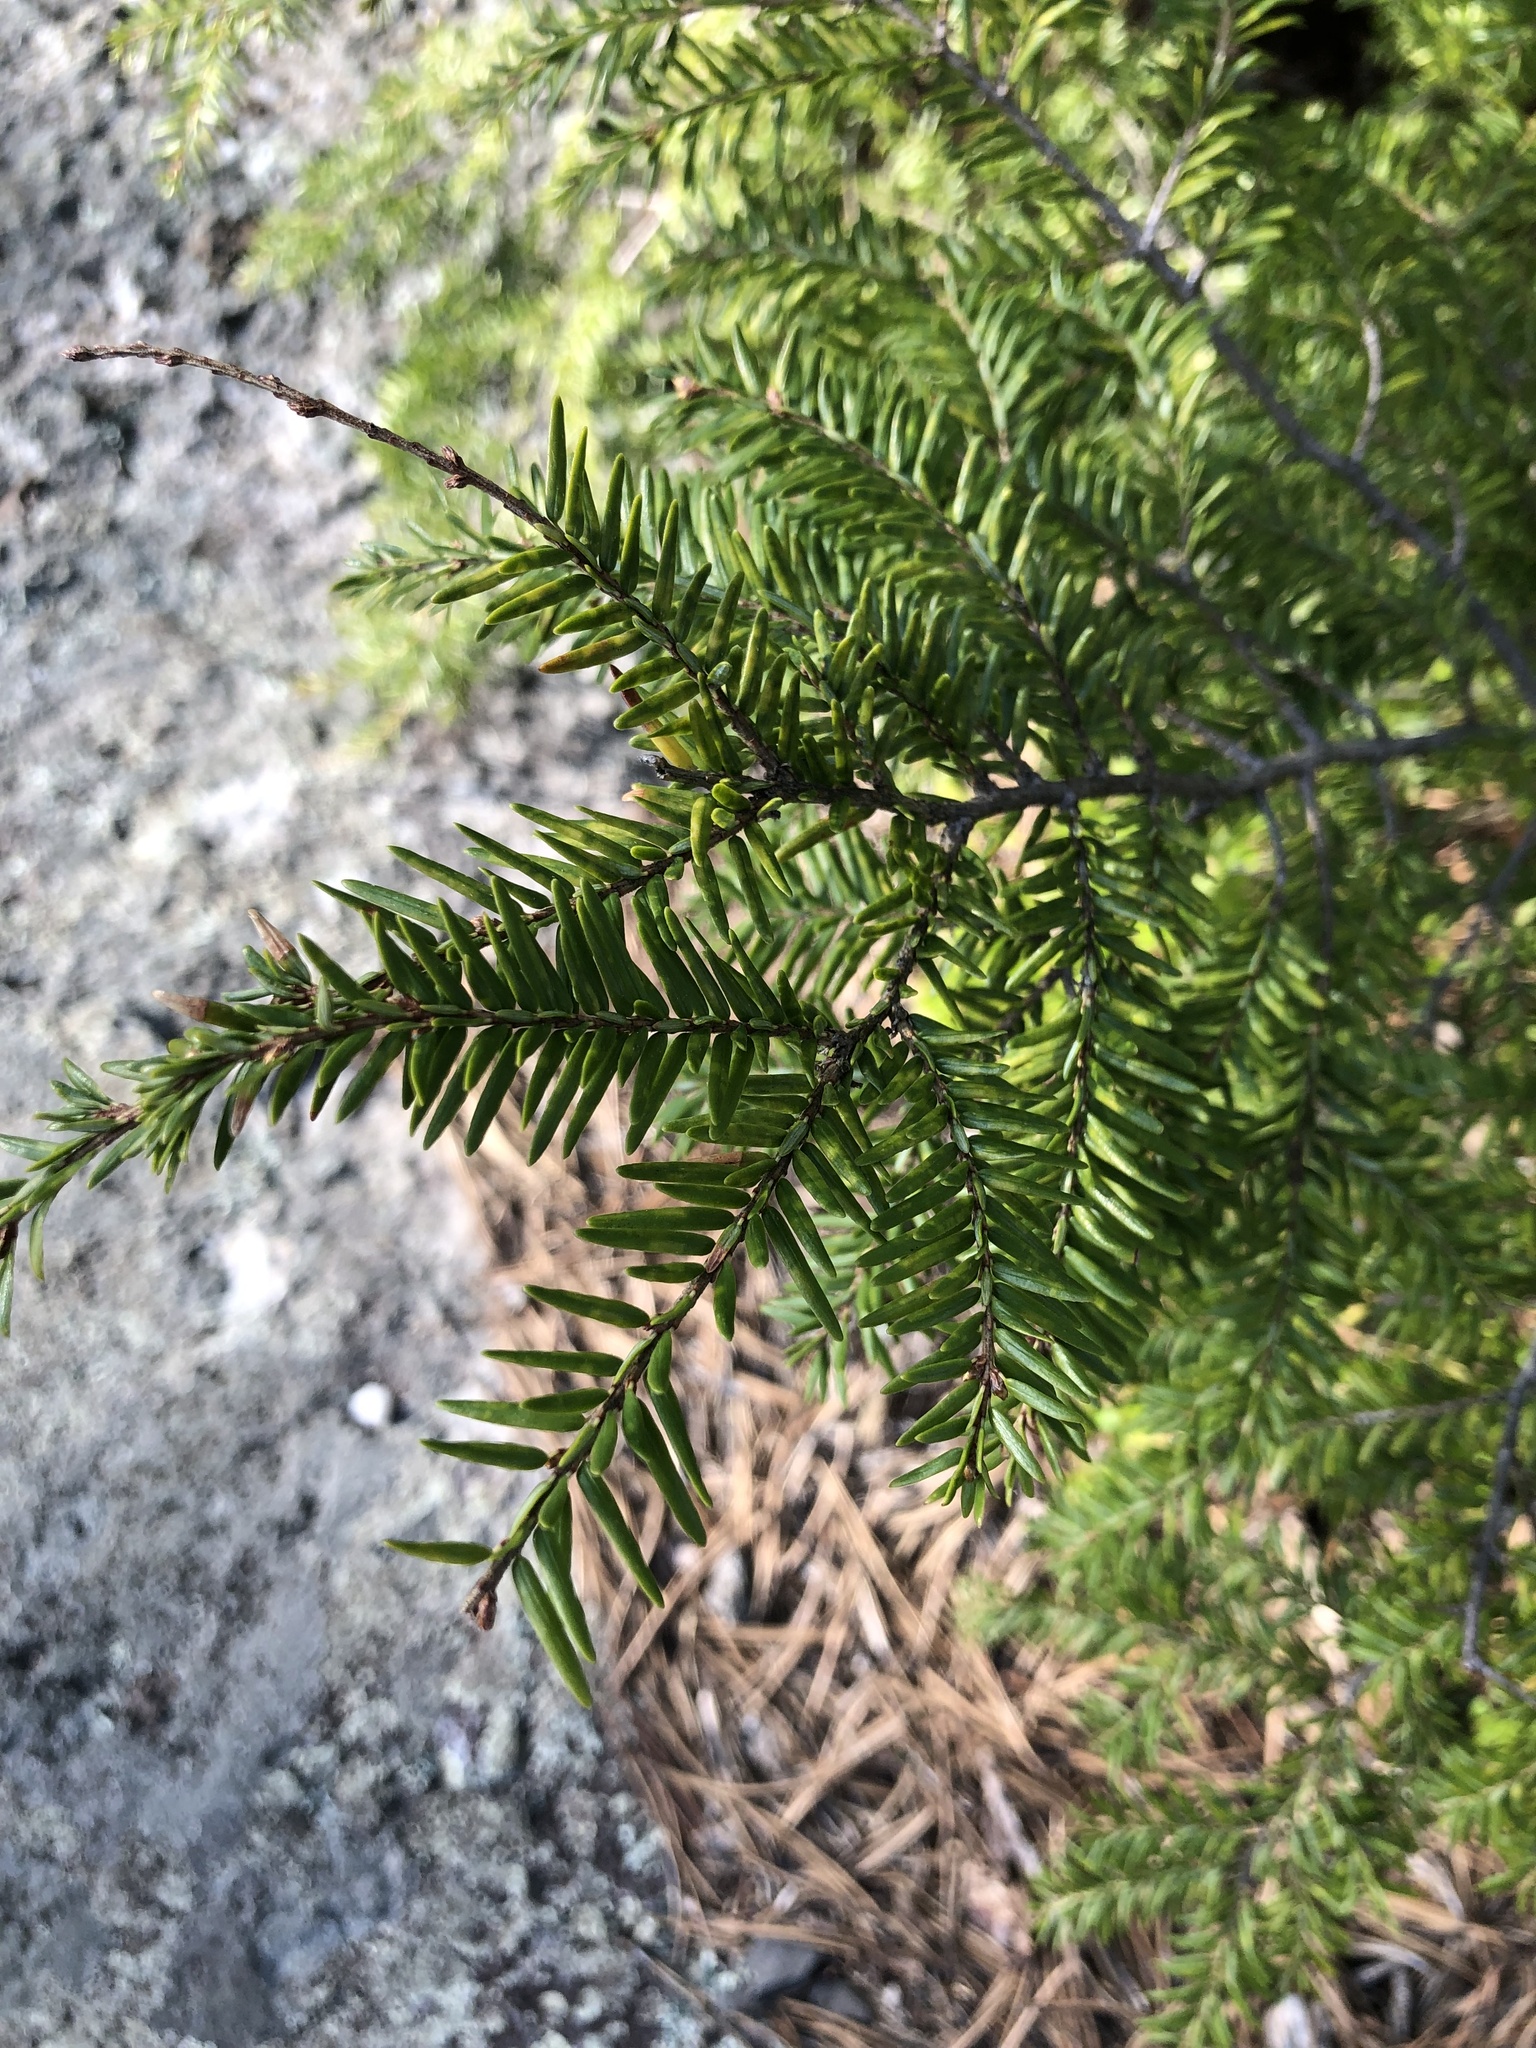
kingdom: Plantae
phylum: Tracheophyta
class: Pinopsida
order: Pinales
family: Pinaceae
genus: Tsuga
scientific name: Tsuga canadensis
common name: Eastern hemlock
